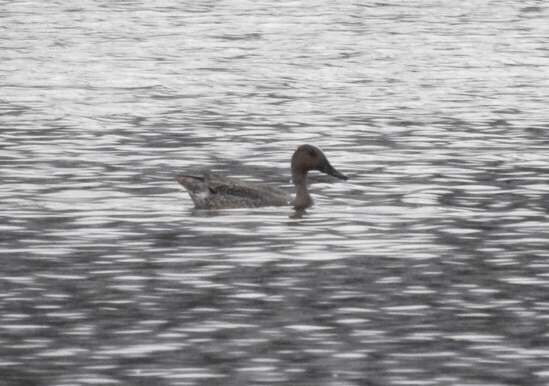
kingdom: Animalia
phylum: Chordata
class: Aves
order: Anseriformes
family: Anatidae
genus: Anas
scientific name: Anas acuta
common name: Northern pintail
